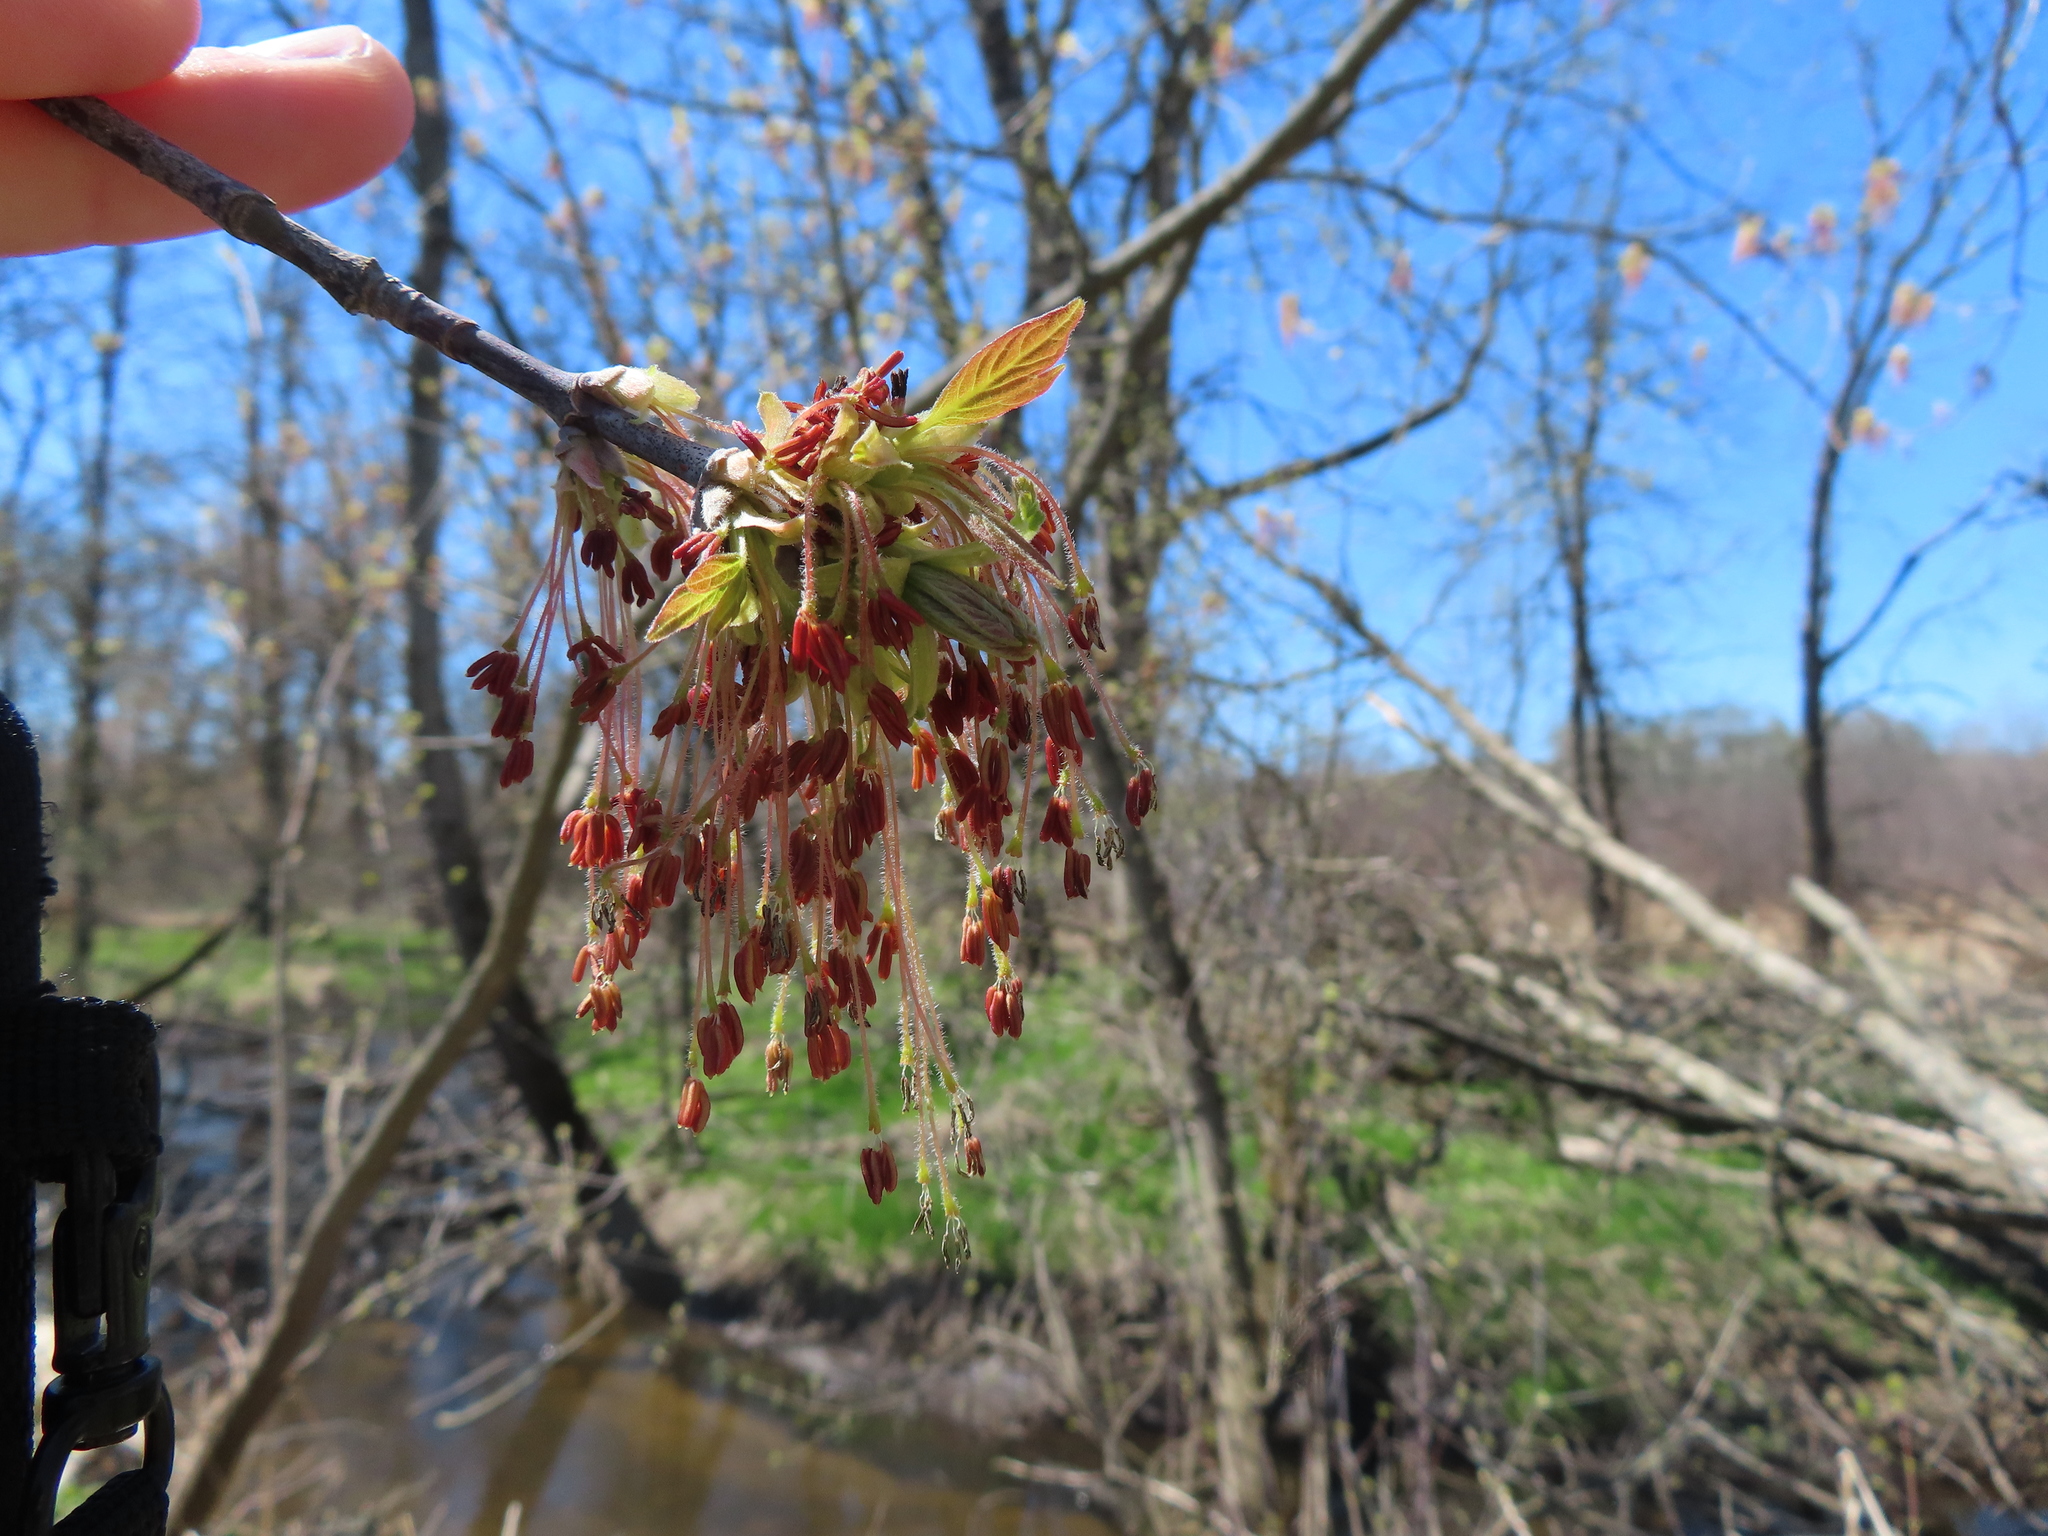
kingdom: Plantae
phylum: Tracheophyta
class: Magnoliopsida
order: Sapindales
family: Sapindaceae
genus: Acer
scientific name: Acer negundo
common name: Ashleaf maple
